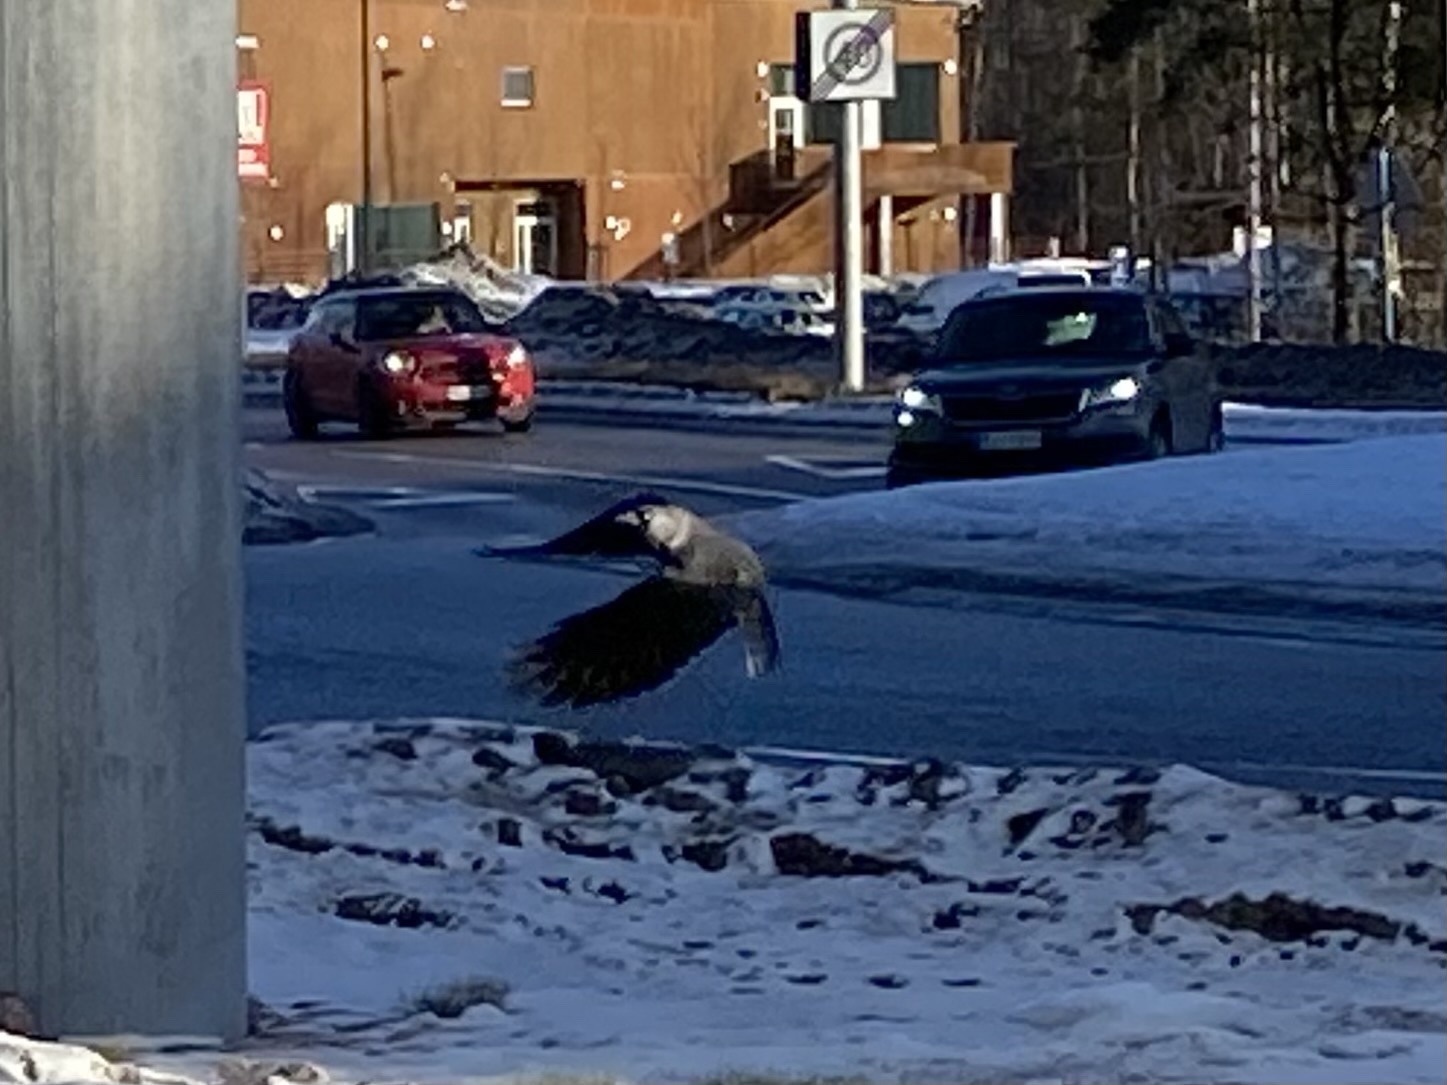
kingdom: Animalia
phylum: Chordata
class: Aves
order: Passeriformes
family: Corvidae
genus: Coloeus
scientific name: Coloeus monedula
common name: Western jackdaw
